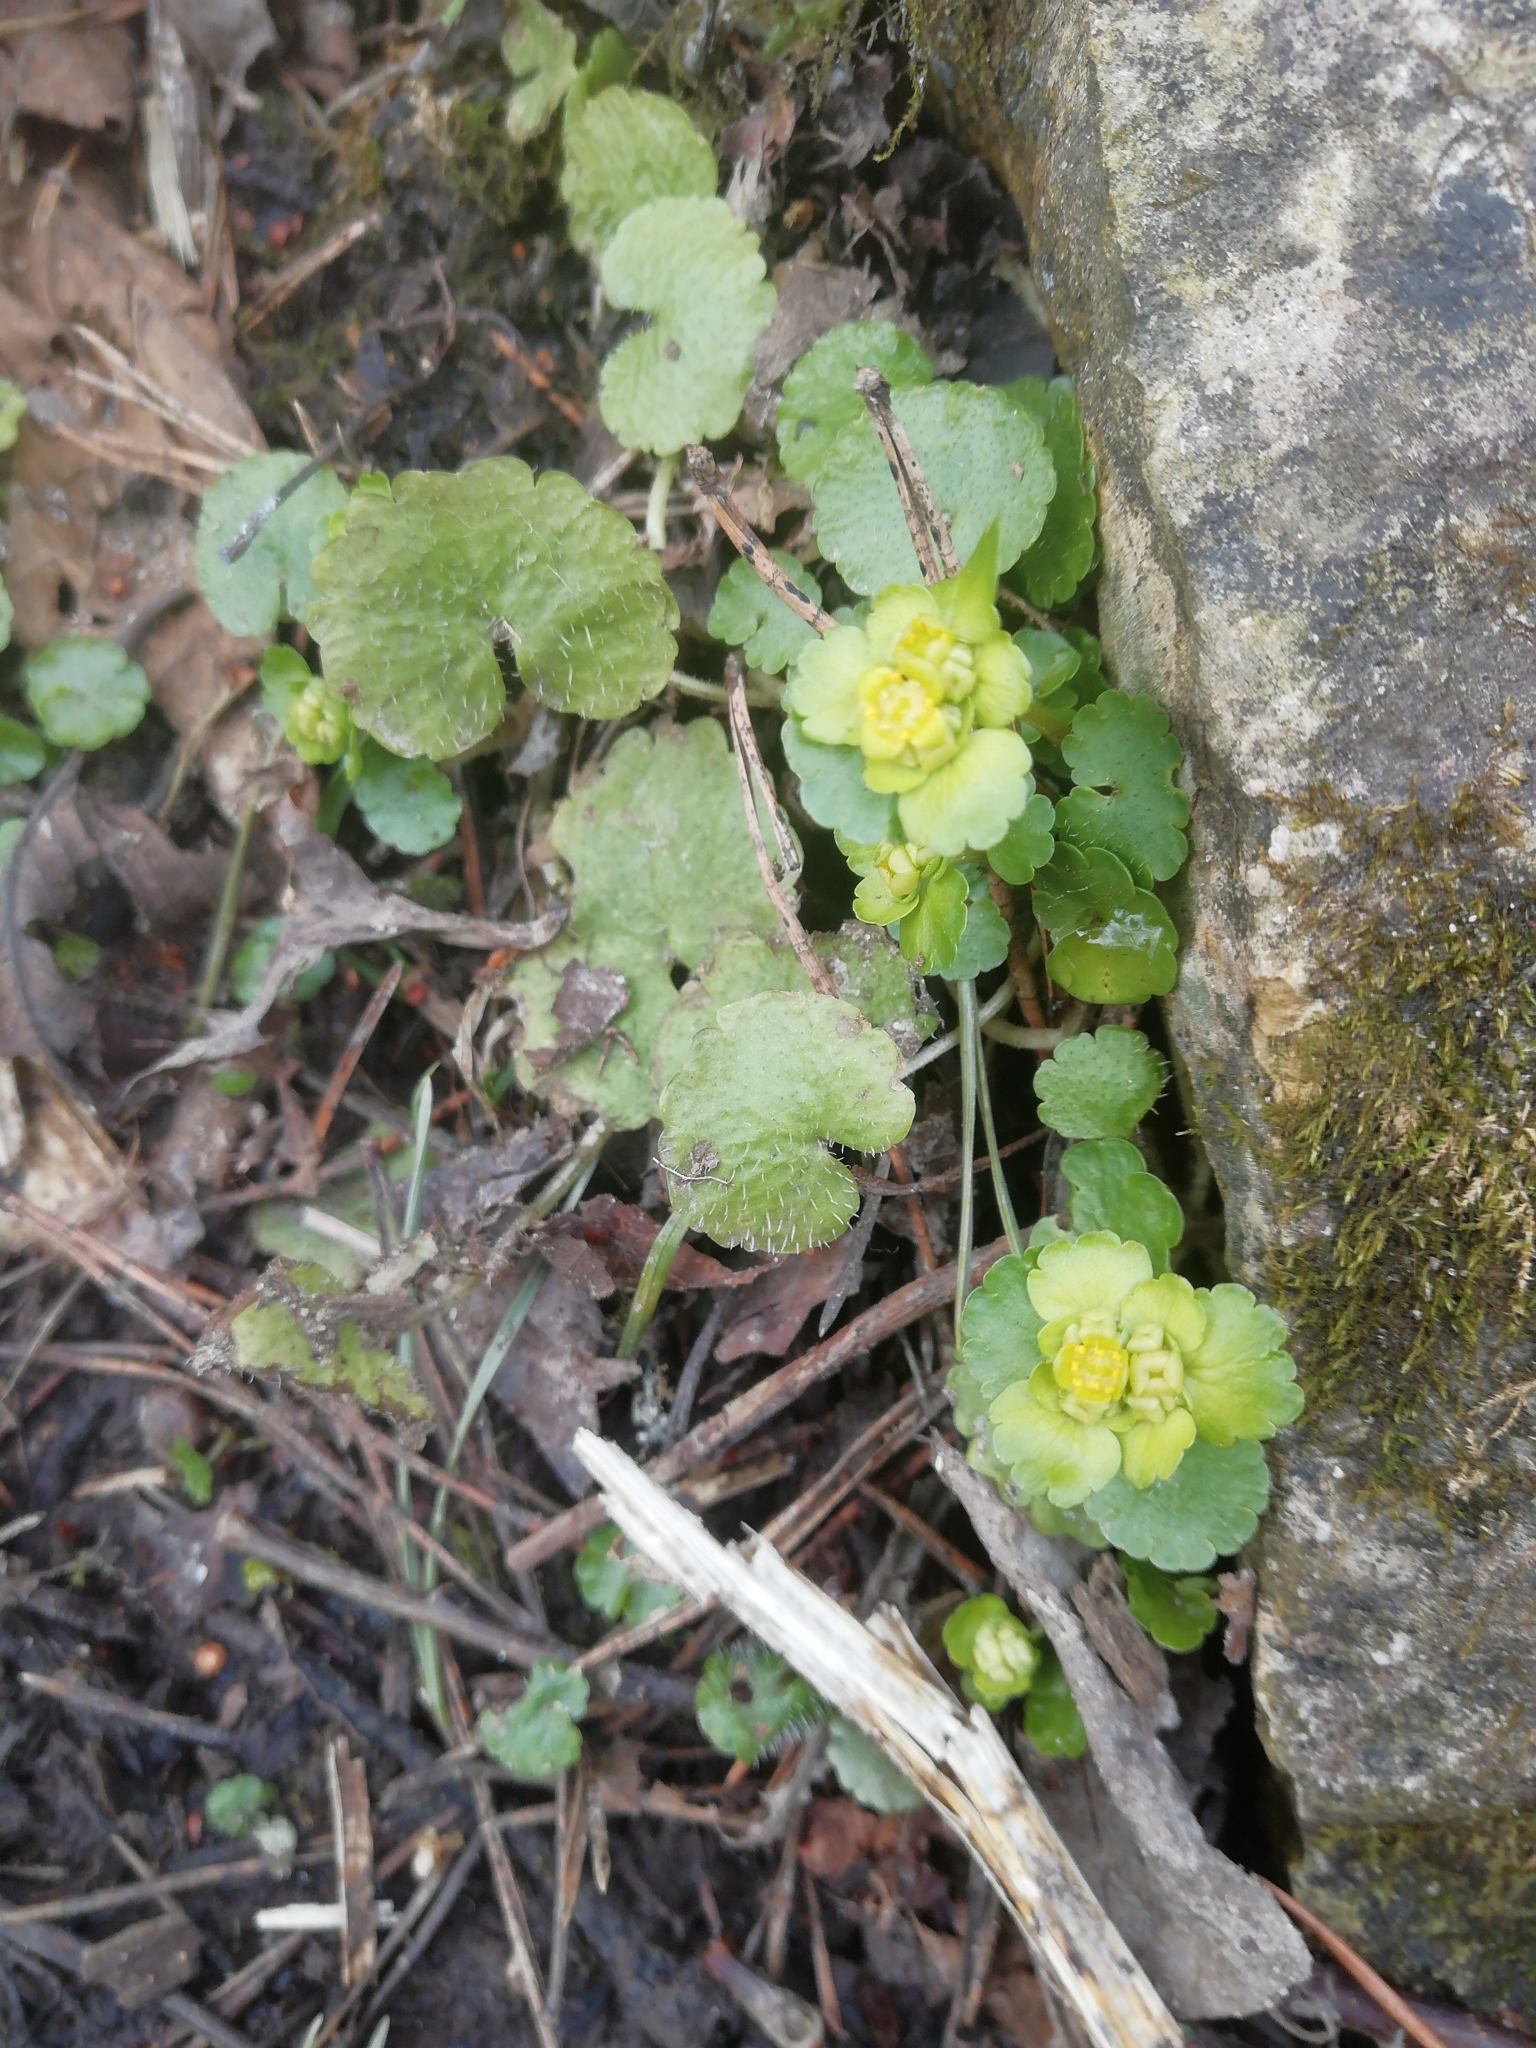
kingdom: Plantae
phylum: Tracheophyta
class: Magnoliopsida
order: Saxifragales
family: Saxifragaceae
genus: Chrysosplenium
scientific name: Chrysosplenium alternifolium
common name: Alternate-leaved golden-saxifrage
